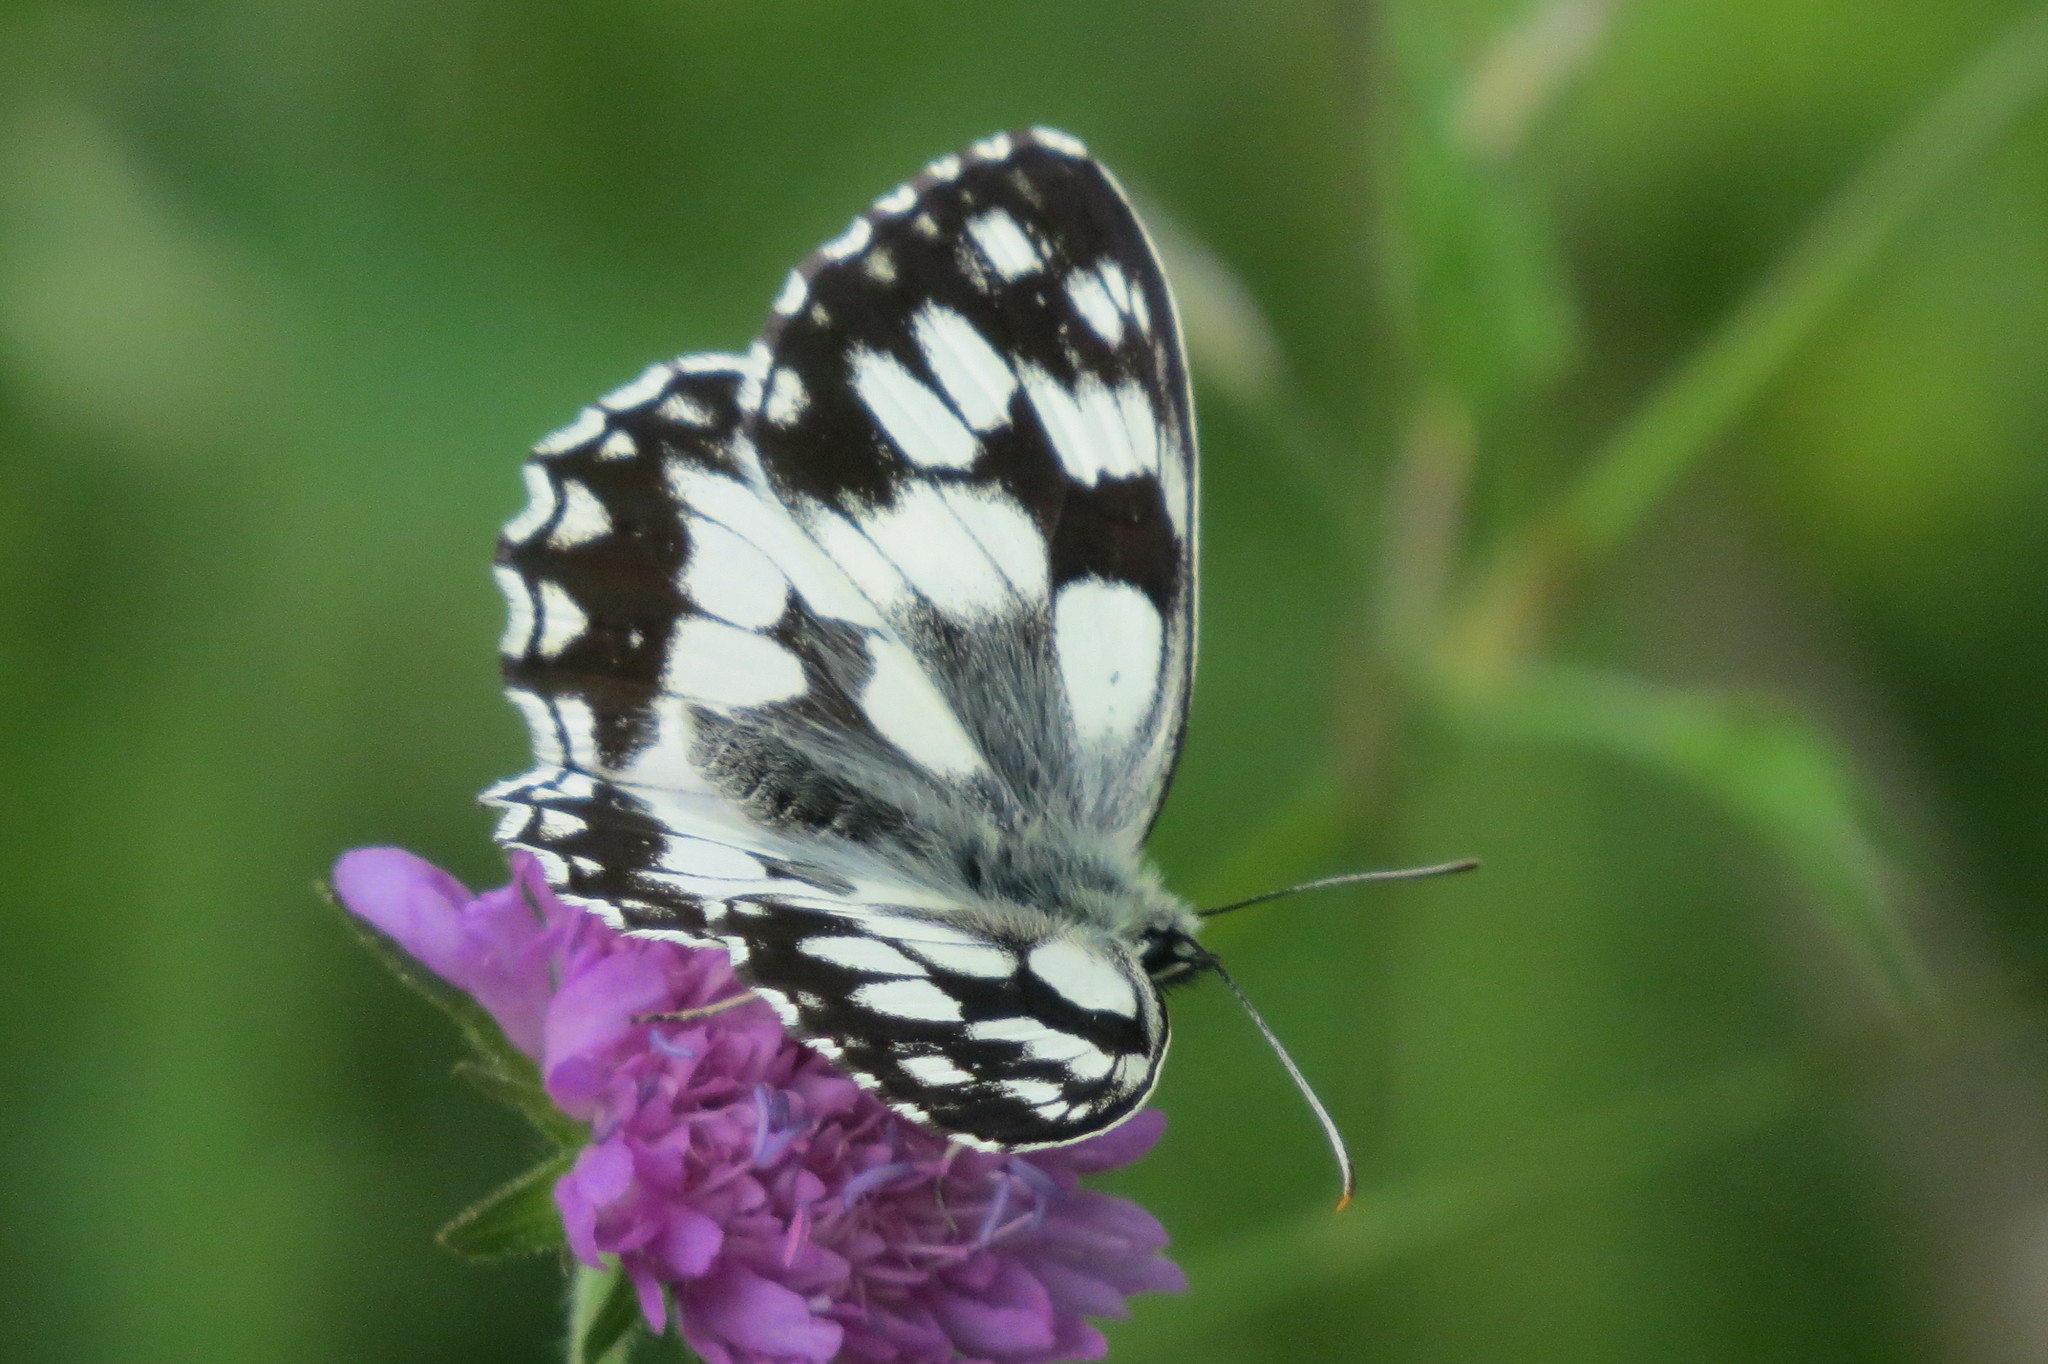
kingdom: Animalia
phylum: Arthropoda
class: Insecta
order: Lepidoptera
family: Nymphalidae
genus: Melanargia
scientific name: Melanargia galathea
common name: Marbled white
